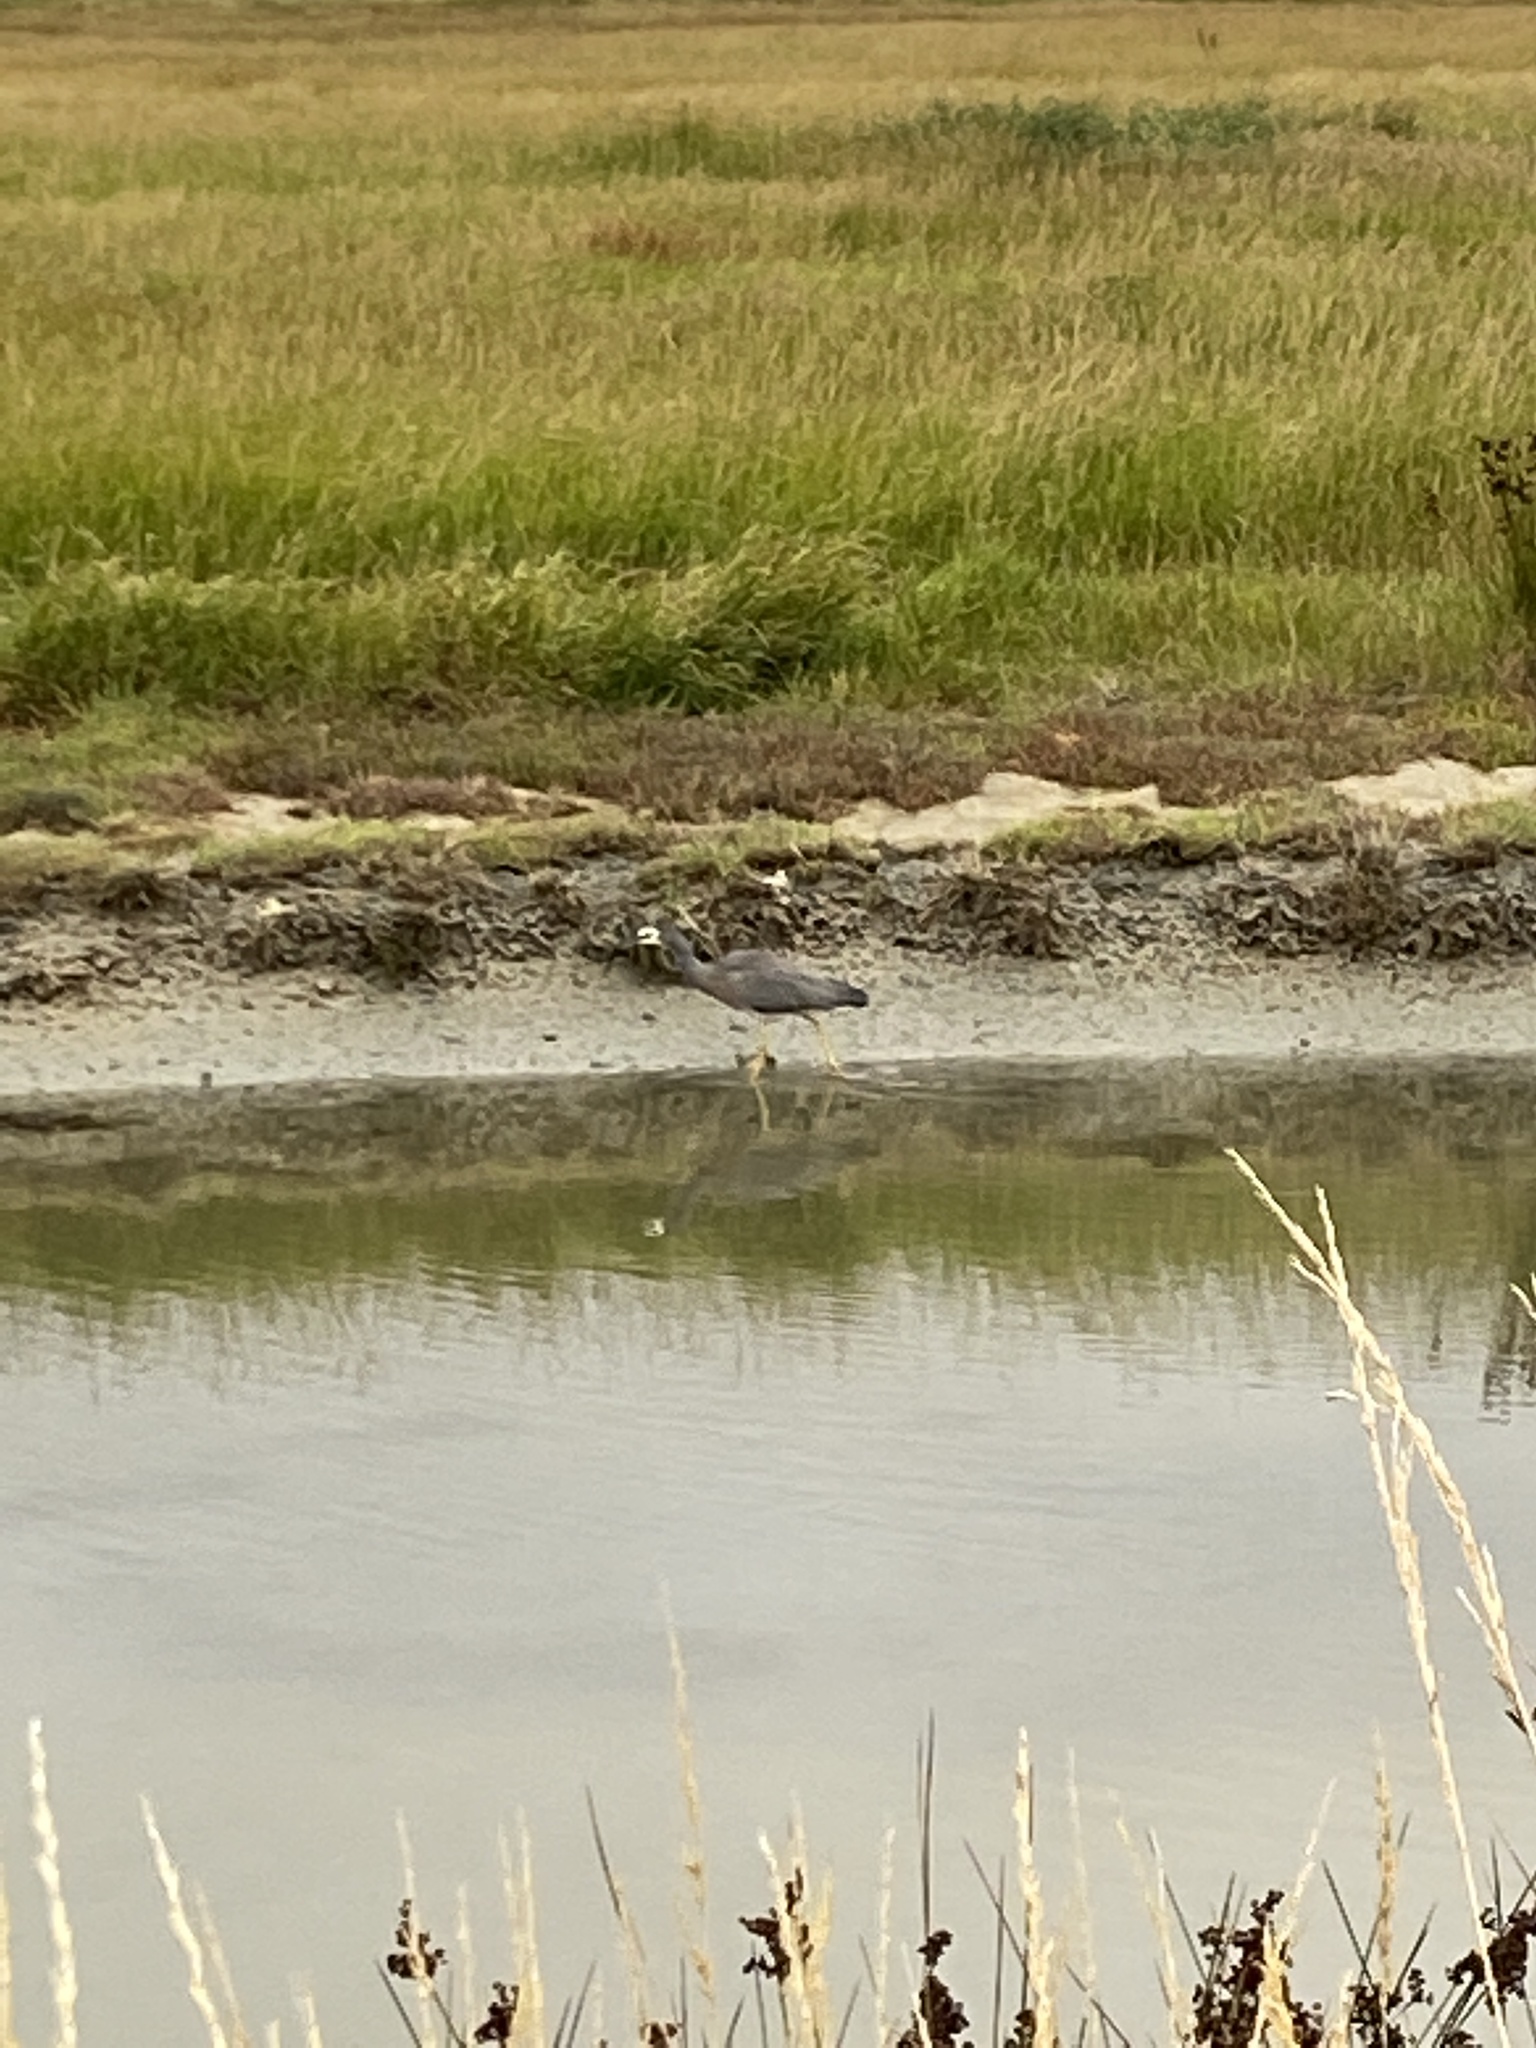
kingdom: Animalia
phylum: Chordata
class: Aves
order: Pelecaniformes
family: Ardeidae
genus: Egretta
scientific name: Egretta novaehollandiae
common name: White-faced heron
